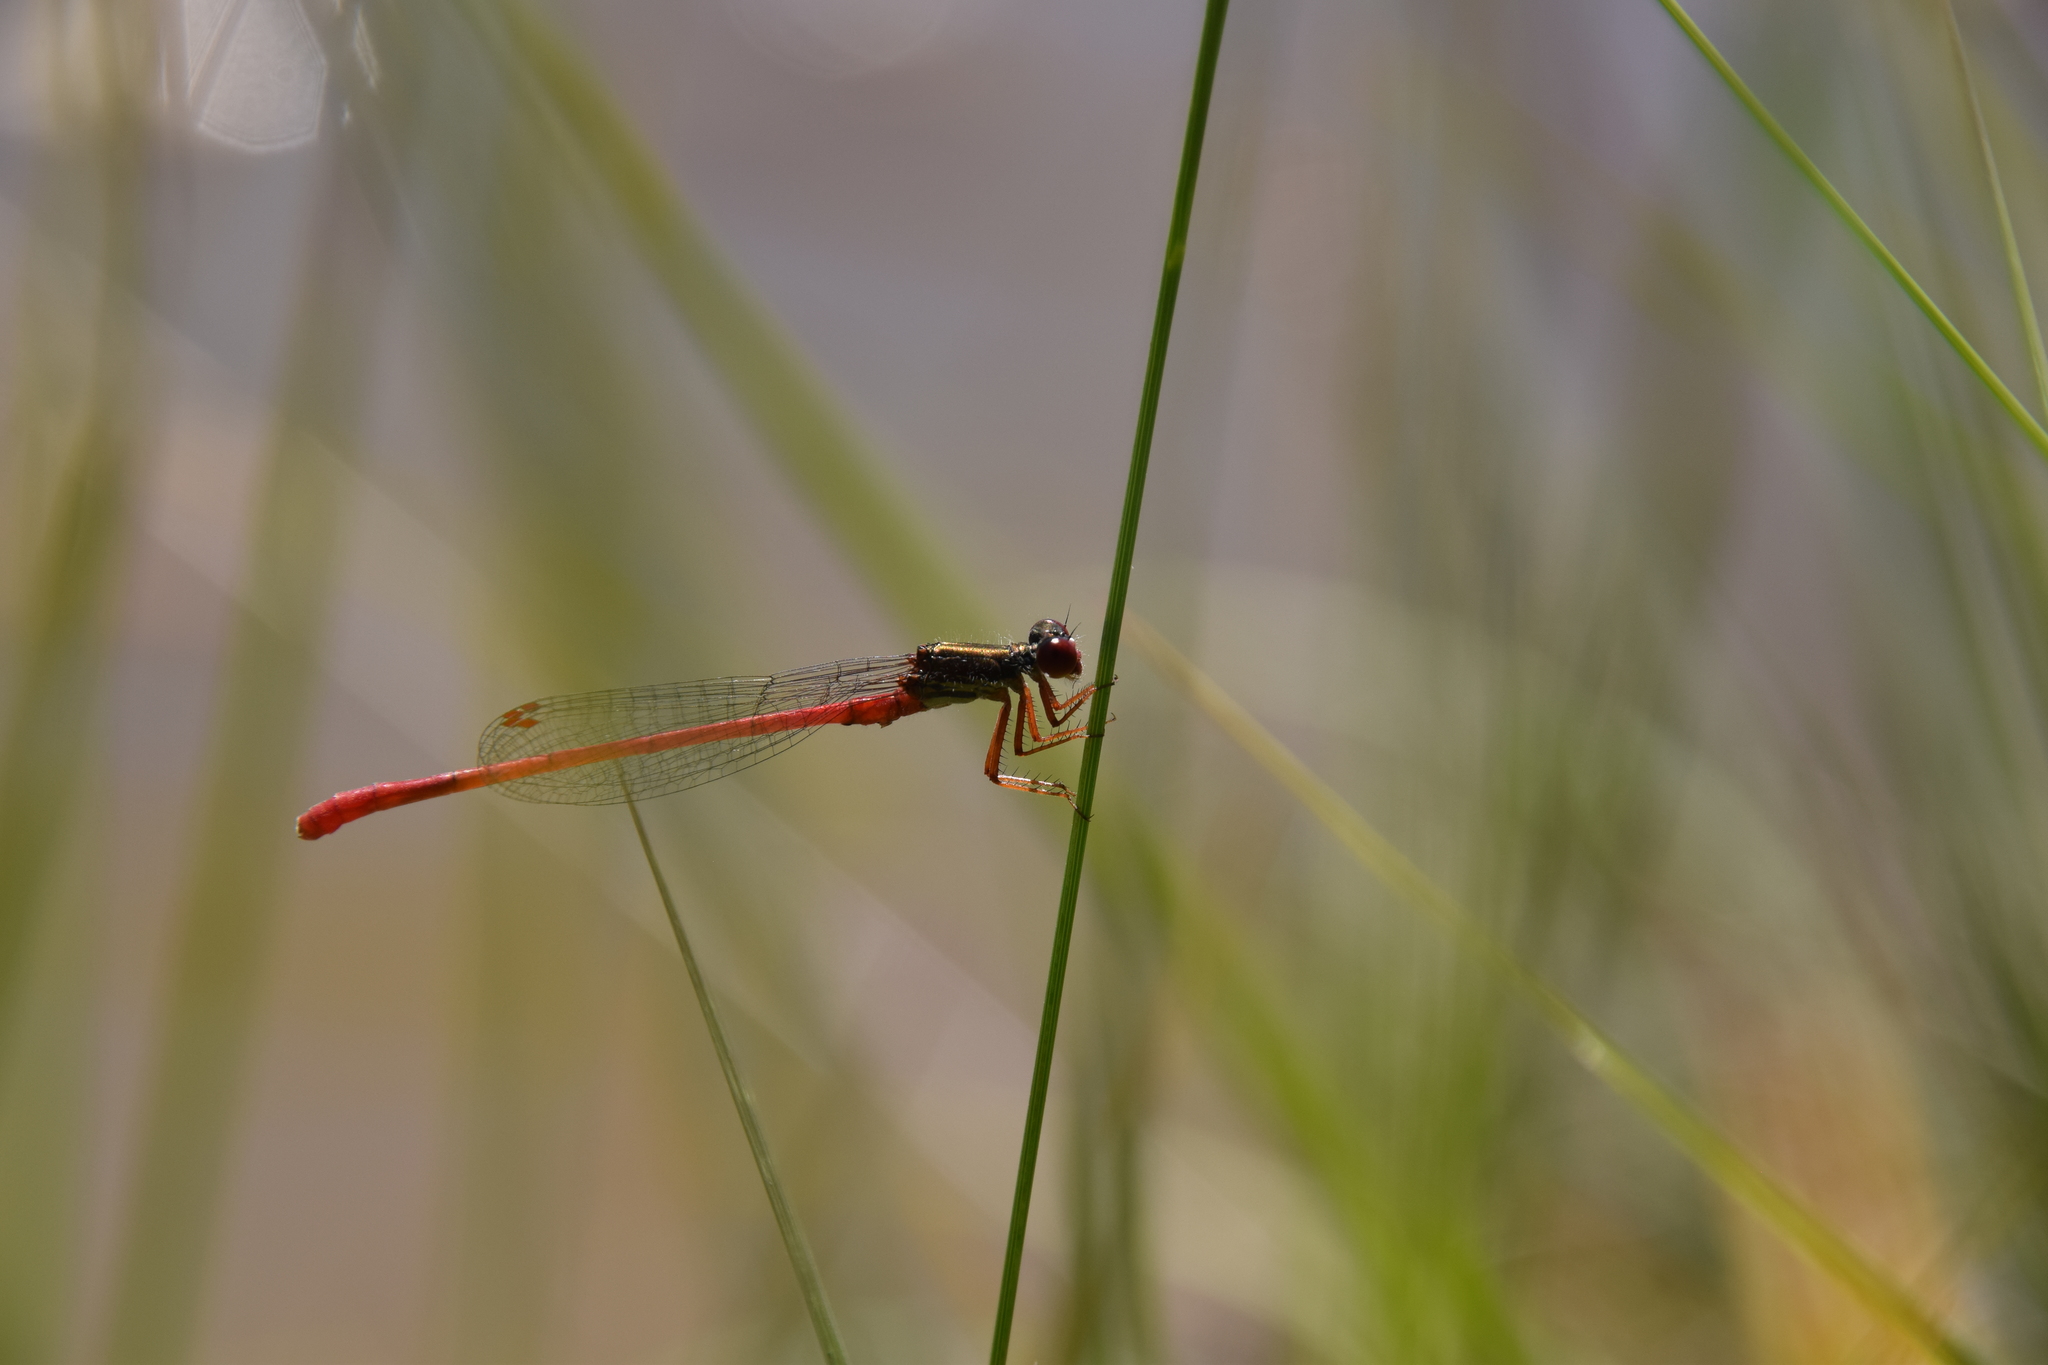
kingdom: Animalia
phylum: Arthropoda
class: Insecta
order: Odonata
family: Coenagrionidae
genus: Ceriagrion
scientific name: Ceriagrion tenellum
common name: Small red damselfly
